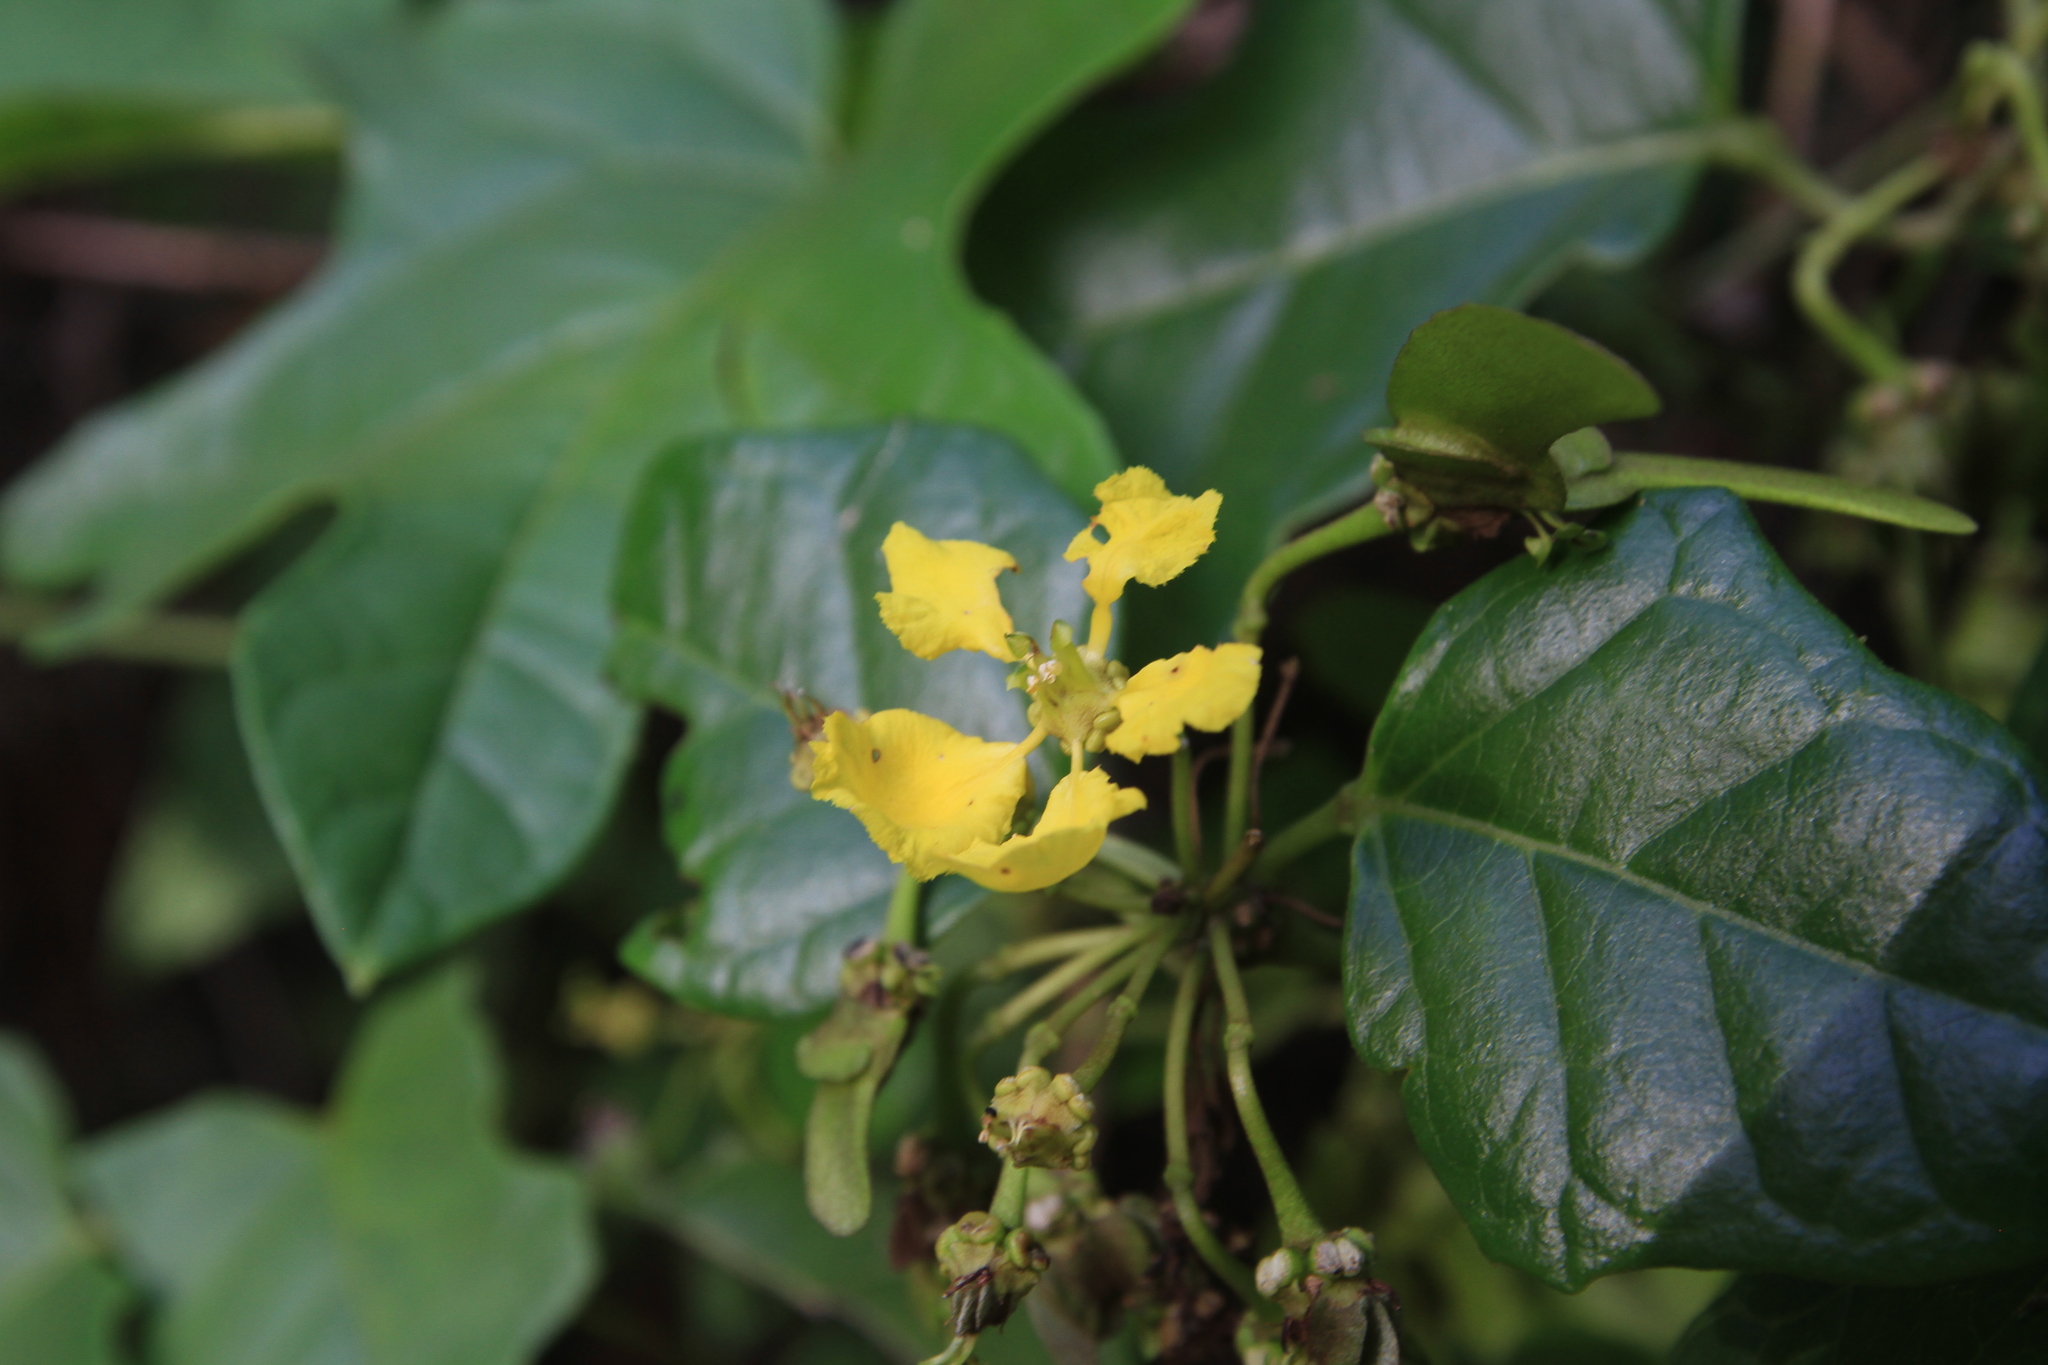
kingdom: Plantae
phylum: Tracheophyta
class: Magnoliopsida
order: Malpighiales
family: Malpighiaceae
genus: Stigmaphyllon
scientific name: Stigmaphyllon diversifolium
